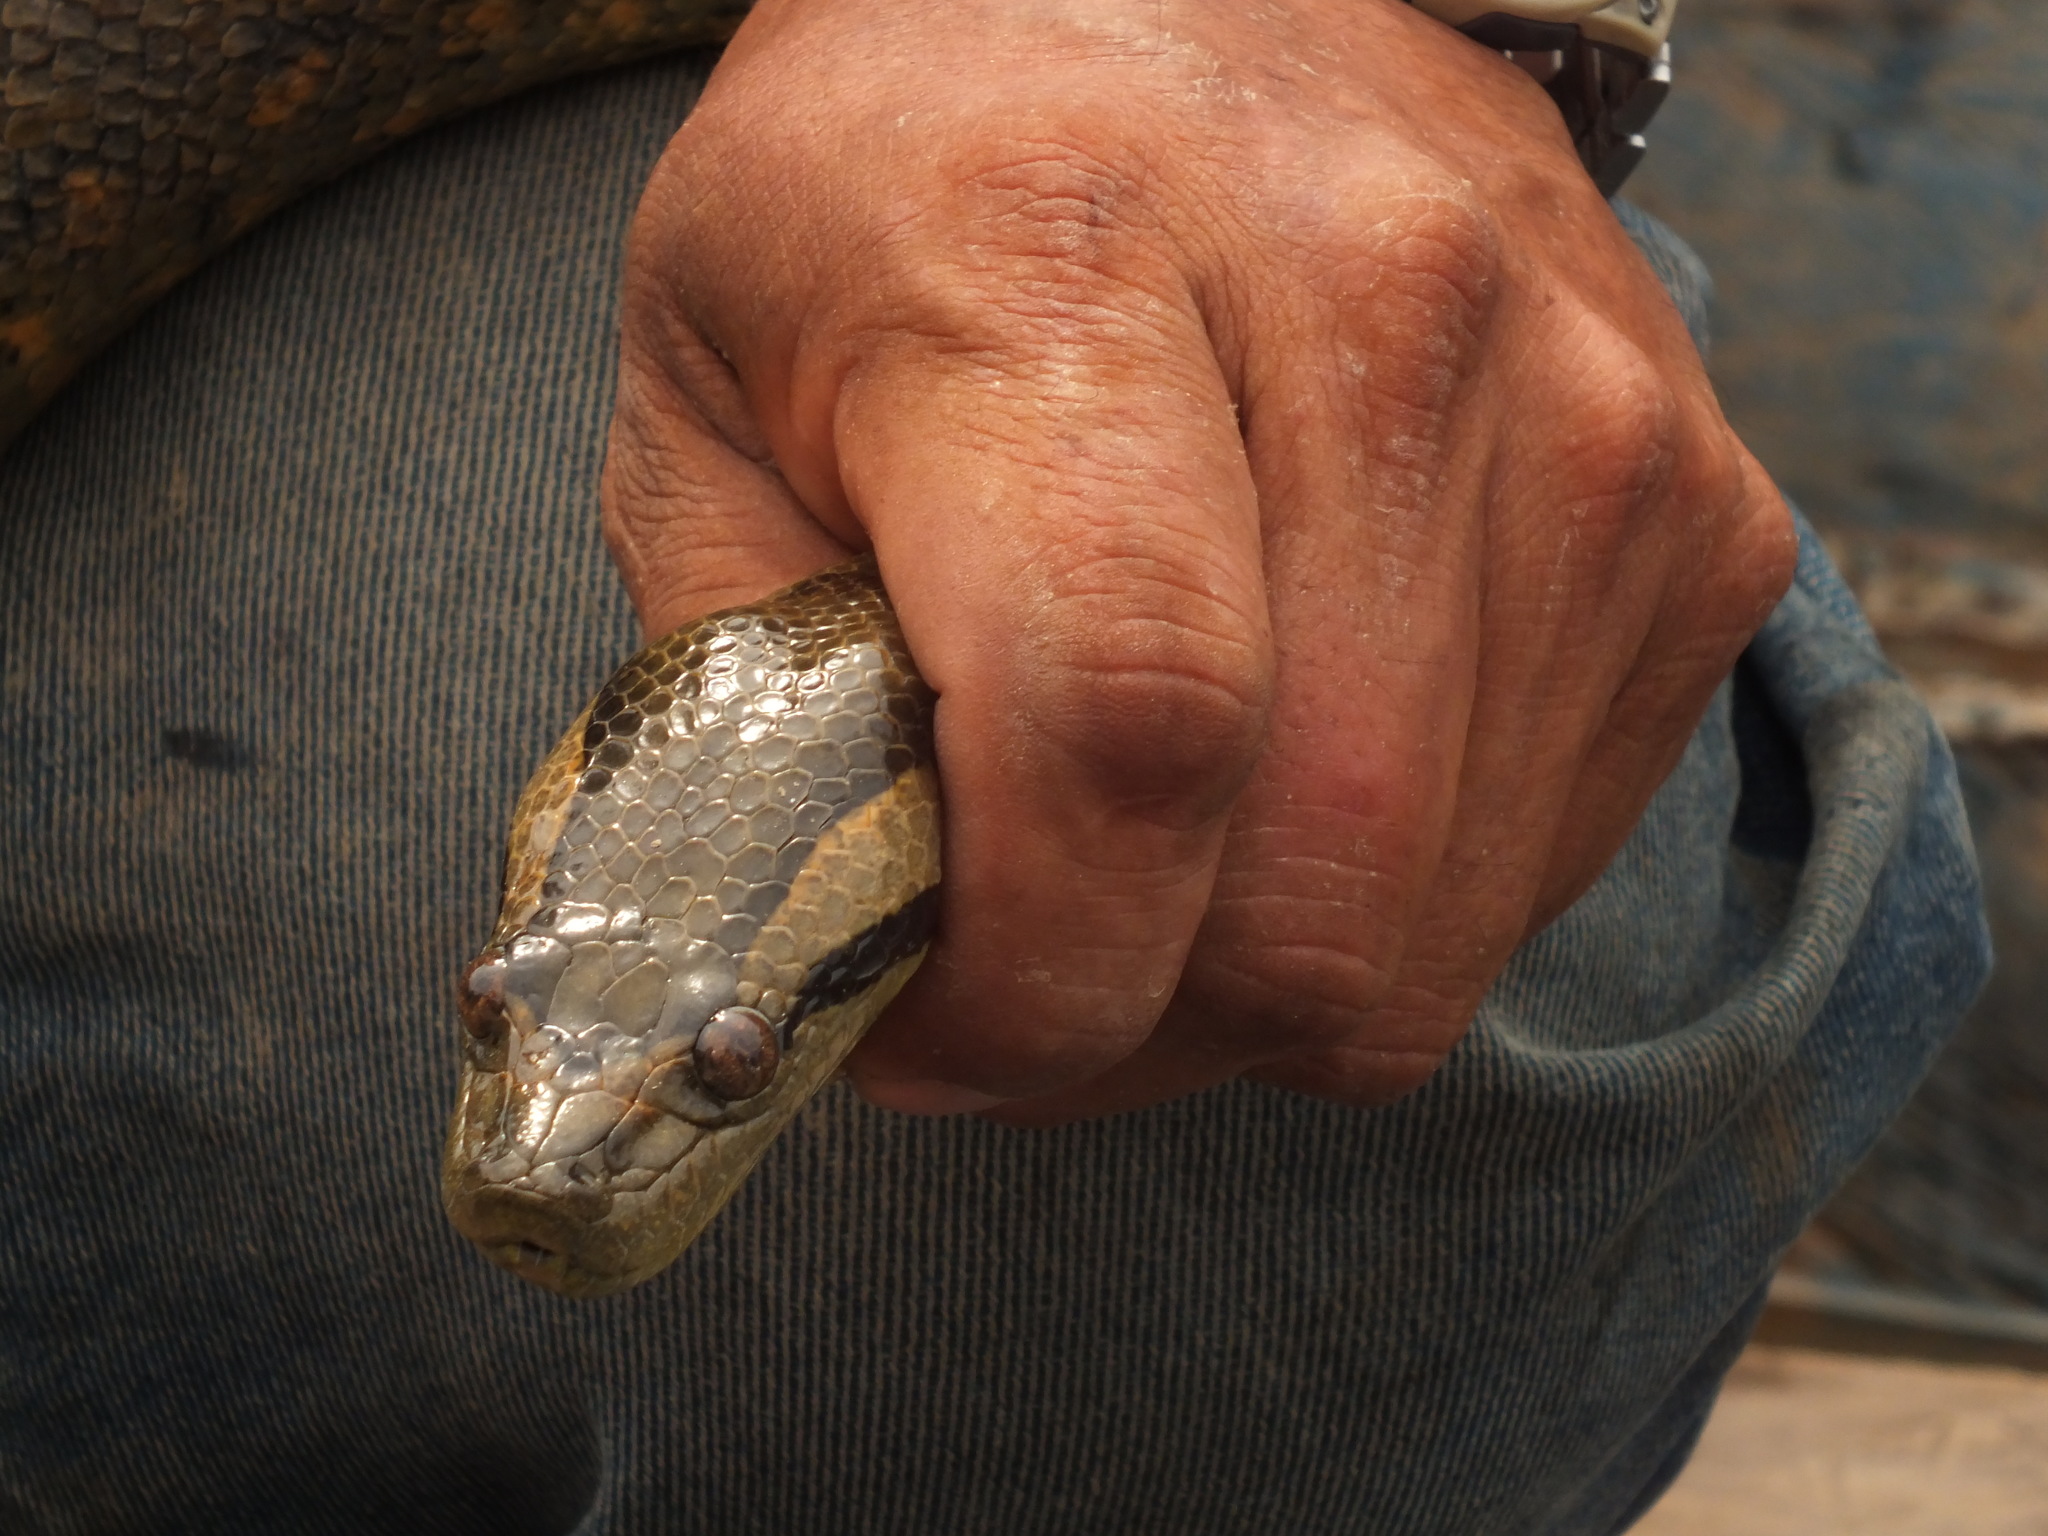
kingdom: Animalia
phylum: Chordata
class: Squamata
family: Boidae
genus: Eunectes
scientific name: Eunectes murinus
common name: Anaconda
